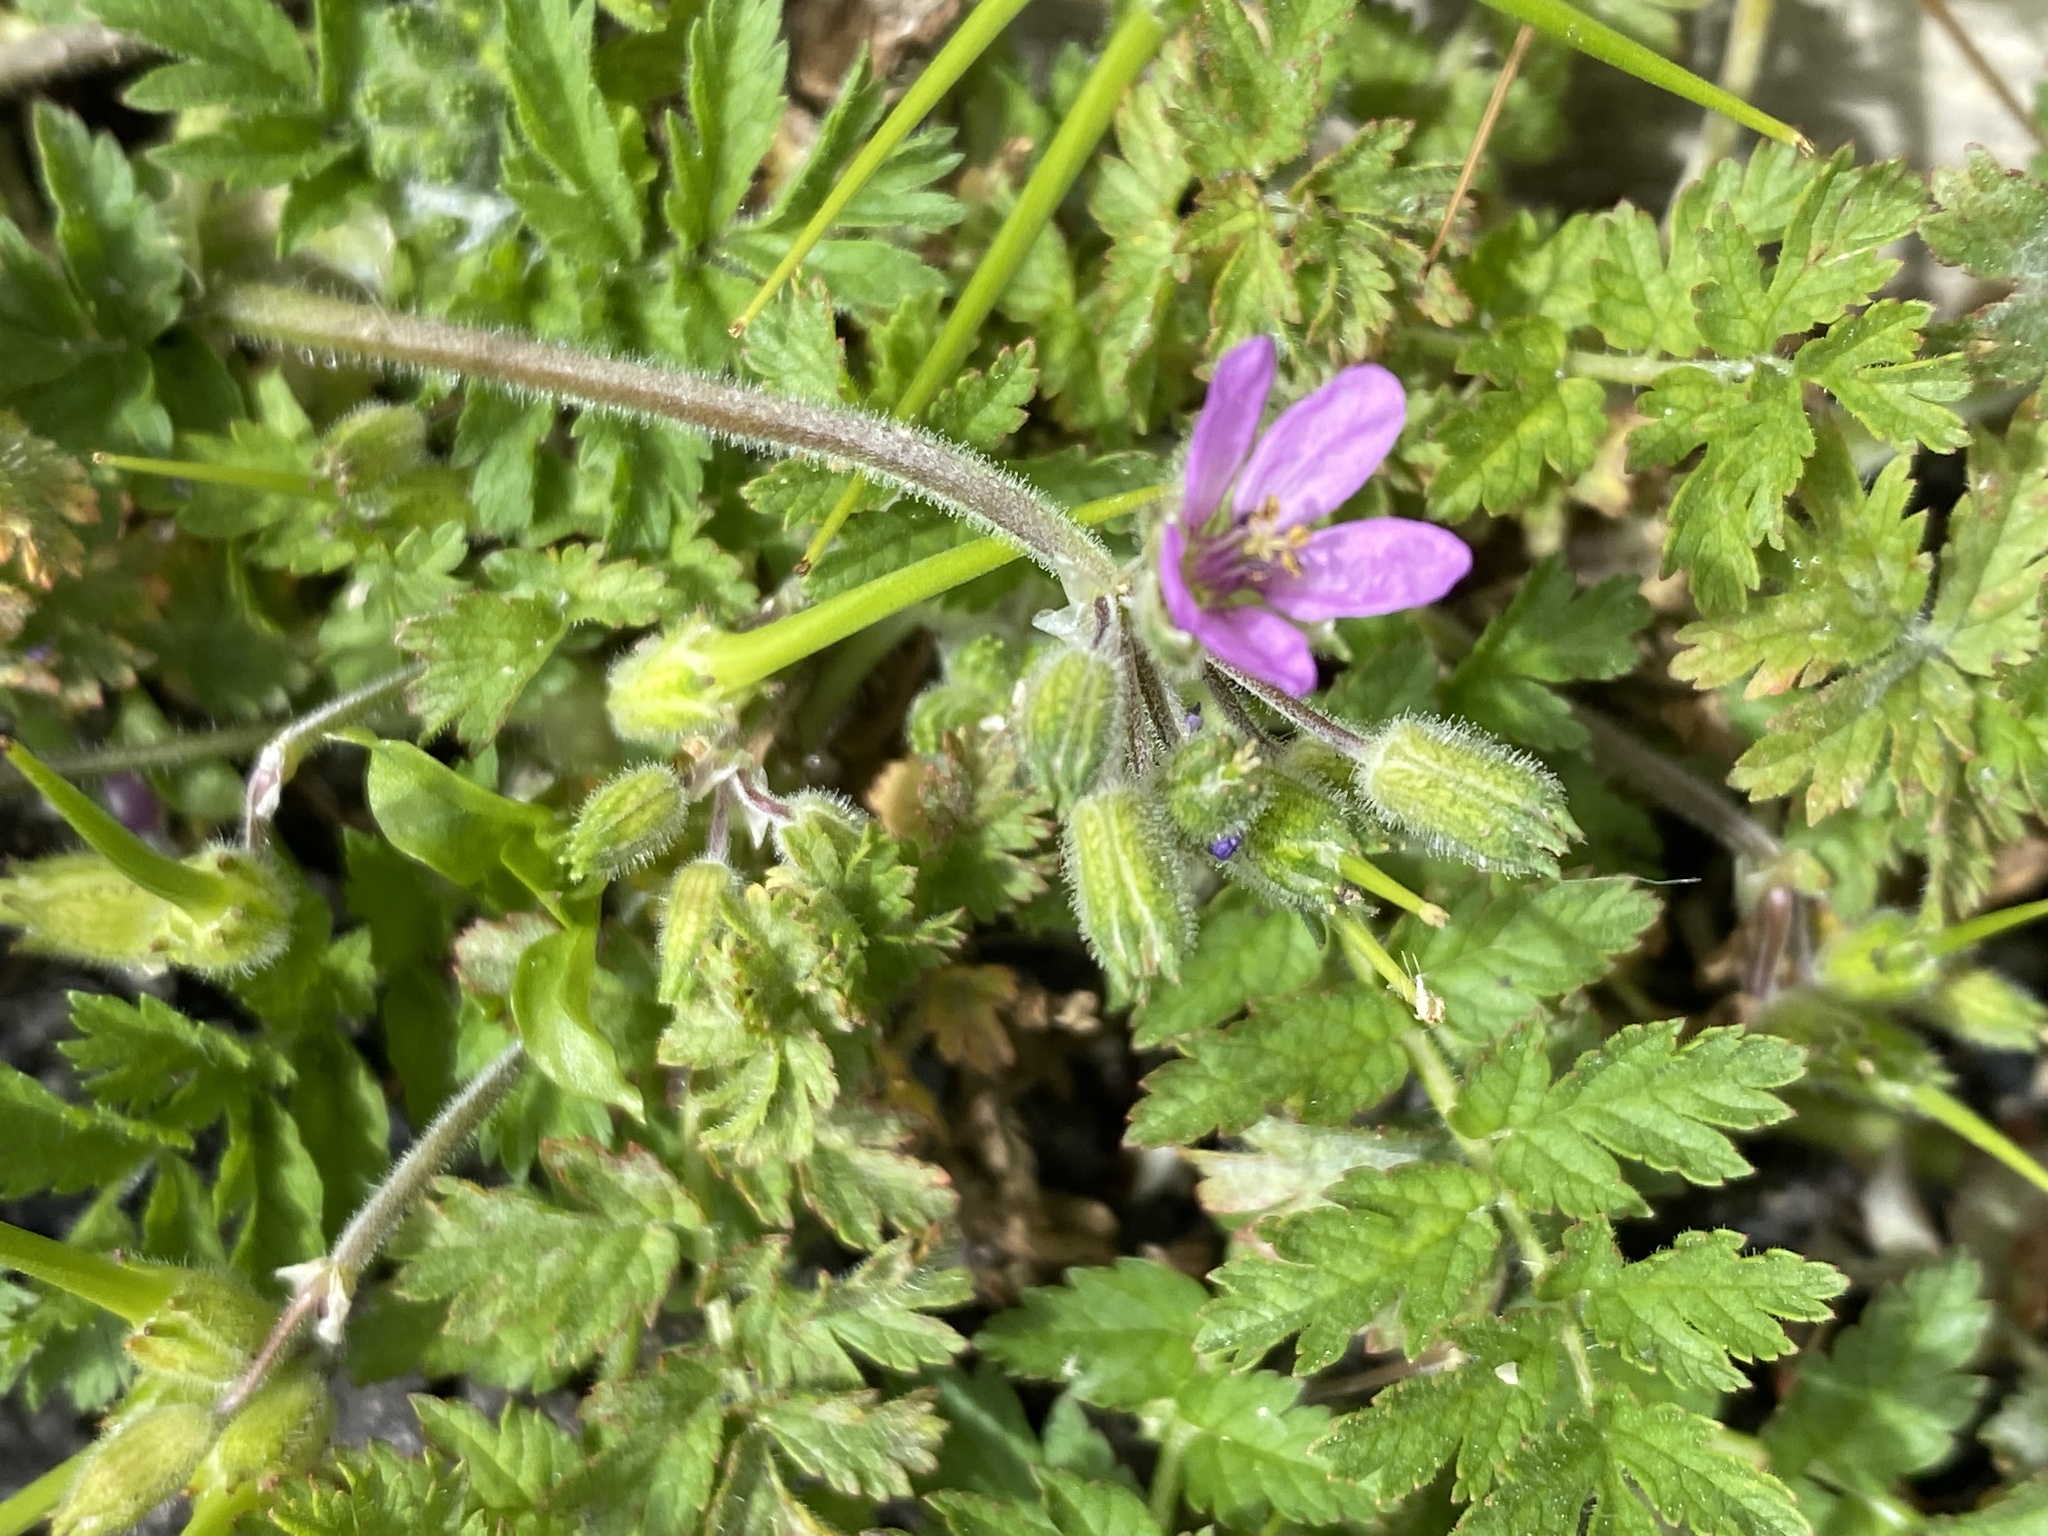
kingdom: Plantae
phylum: Tracheophyta
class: Magnoliopsida
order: Geraniales
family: Geraniaceae
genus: Erodium
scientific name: Erodium moschatum
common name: Musk stork's-bill
